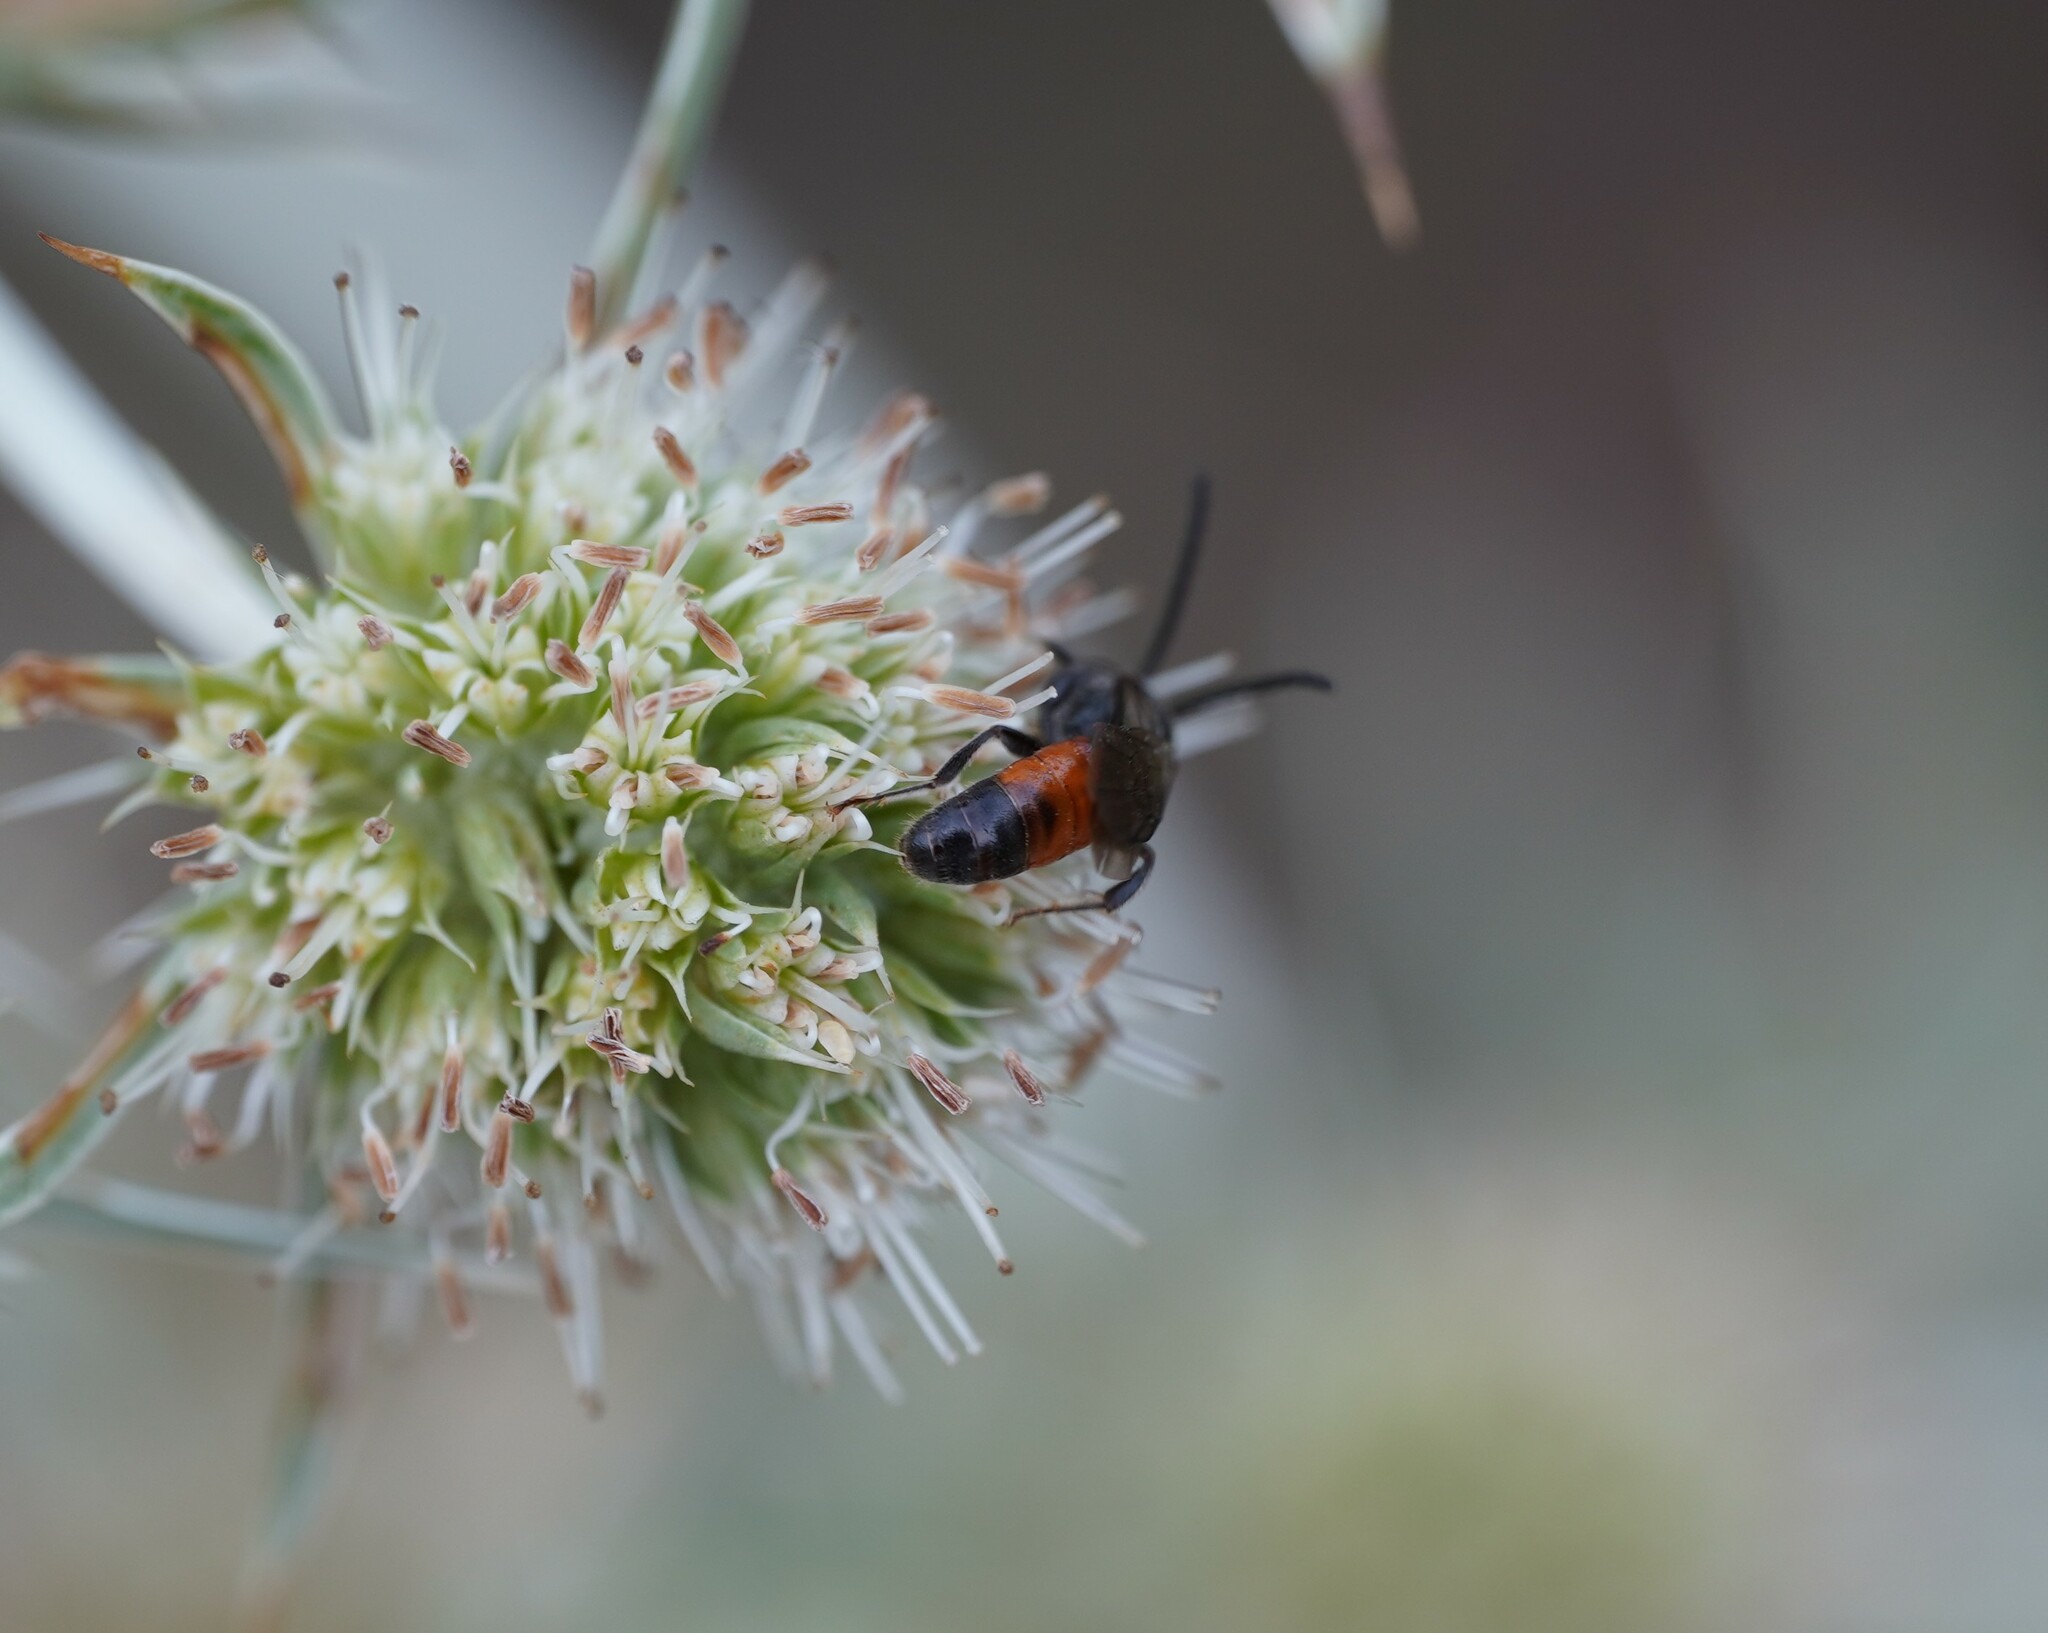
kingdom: Animalia
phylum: Arthropoda
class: Insecta
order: Hymenoptera
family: Halictidae
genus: Sphecodes
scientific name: Sphecodes
